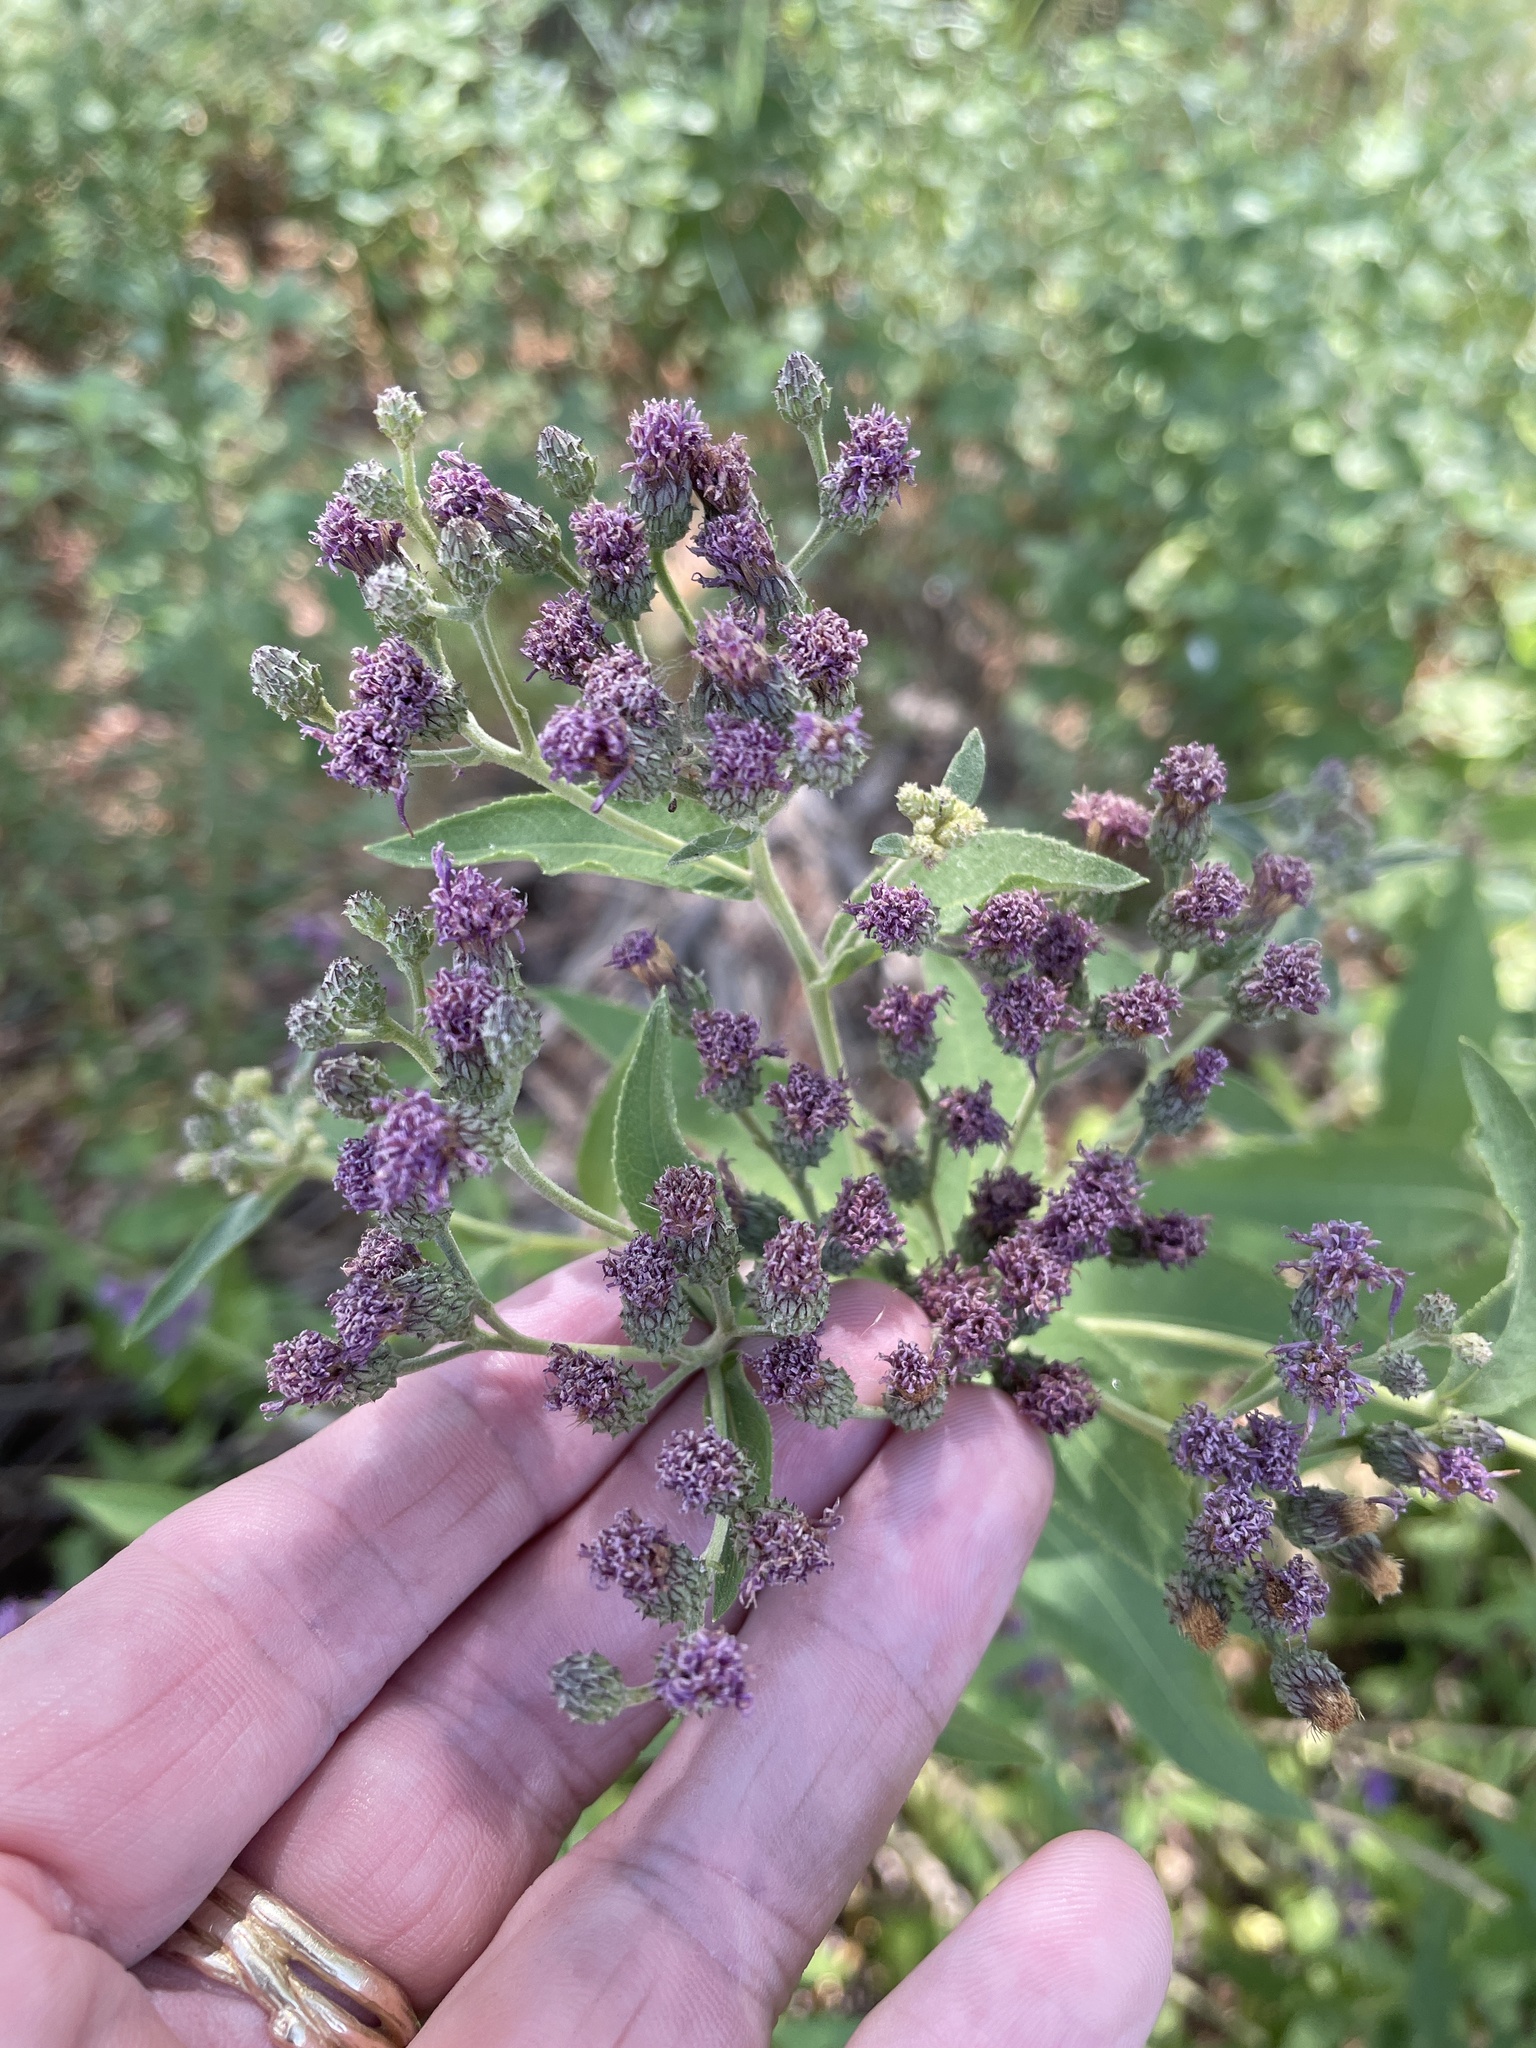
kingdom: Plantae
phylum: Tracheophyta
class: Magnoliopsida
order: Asterales
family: Asteraceae
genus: Vernonia
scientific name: Vernonia baldwinii
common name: Western ironweed
